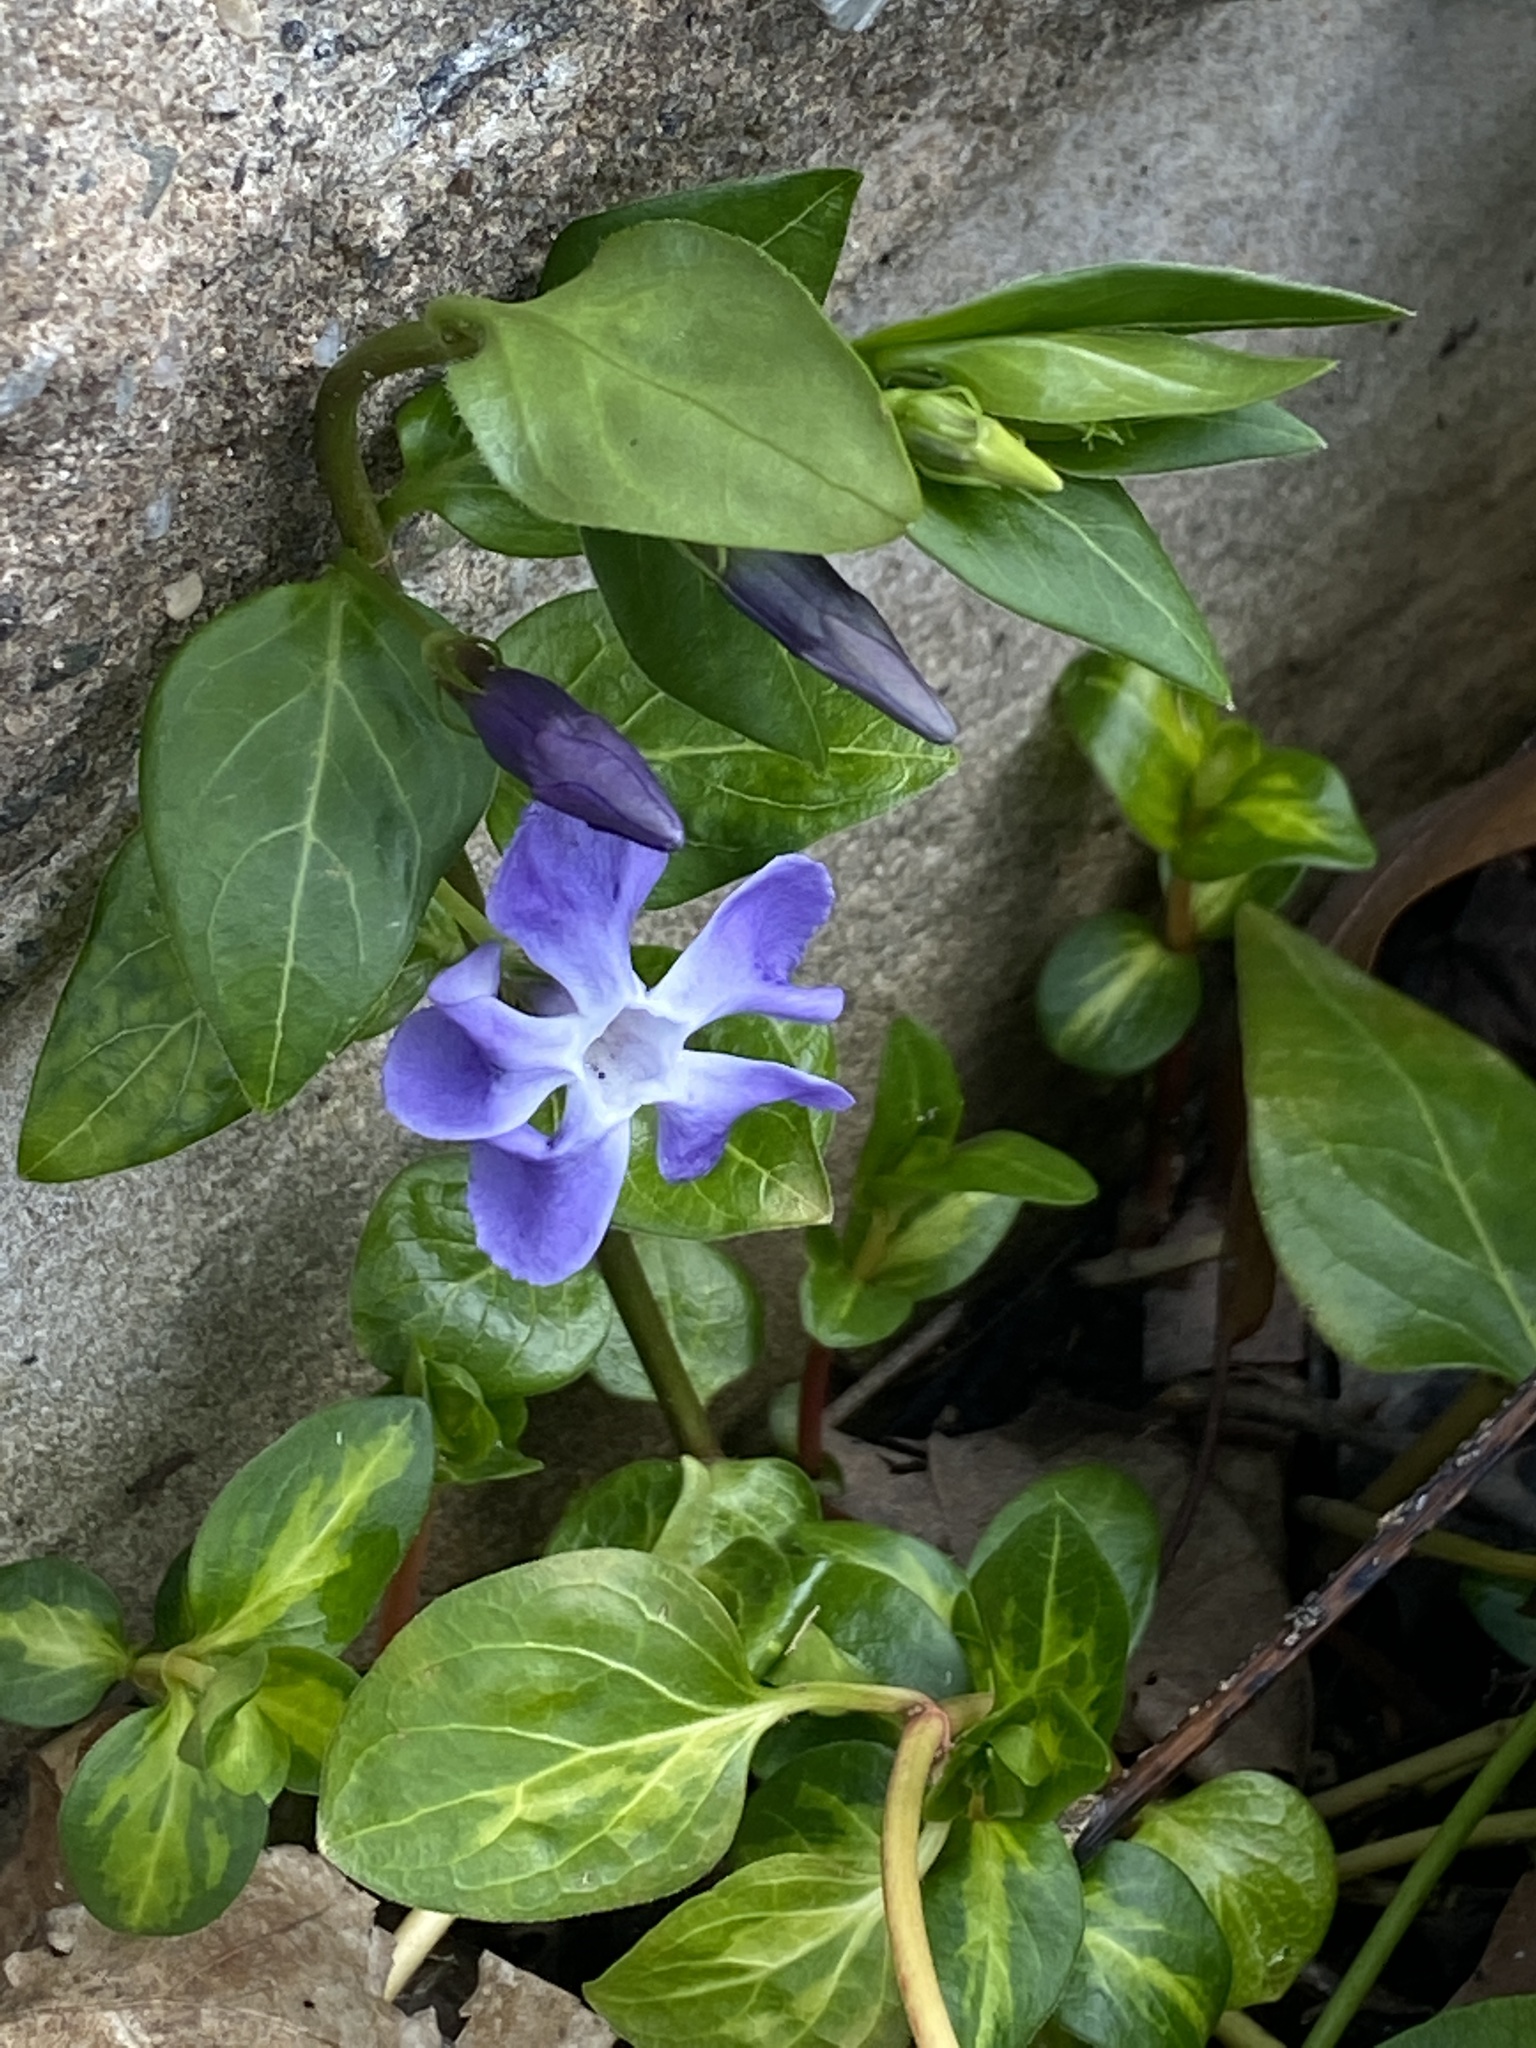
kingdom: Plantae
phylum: Tracheophyta
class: Magnoliopsida
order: Gentianales
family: Apocynaceae
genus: Vinca
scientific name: Vinca major
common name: Greater periwinkle
